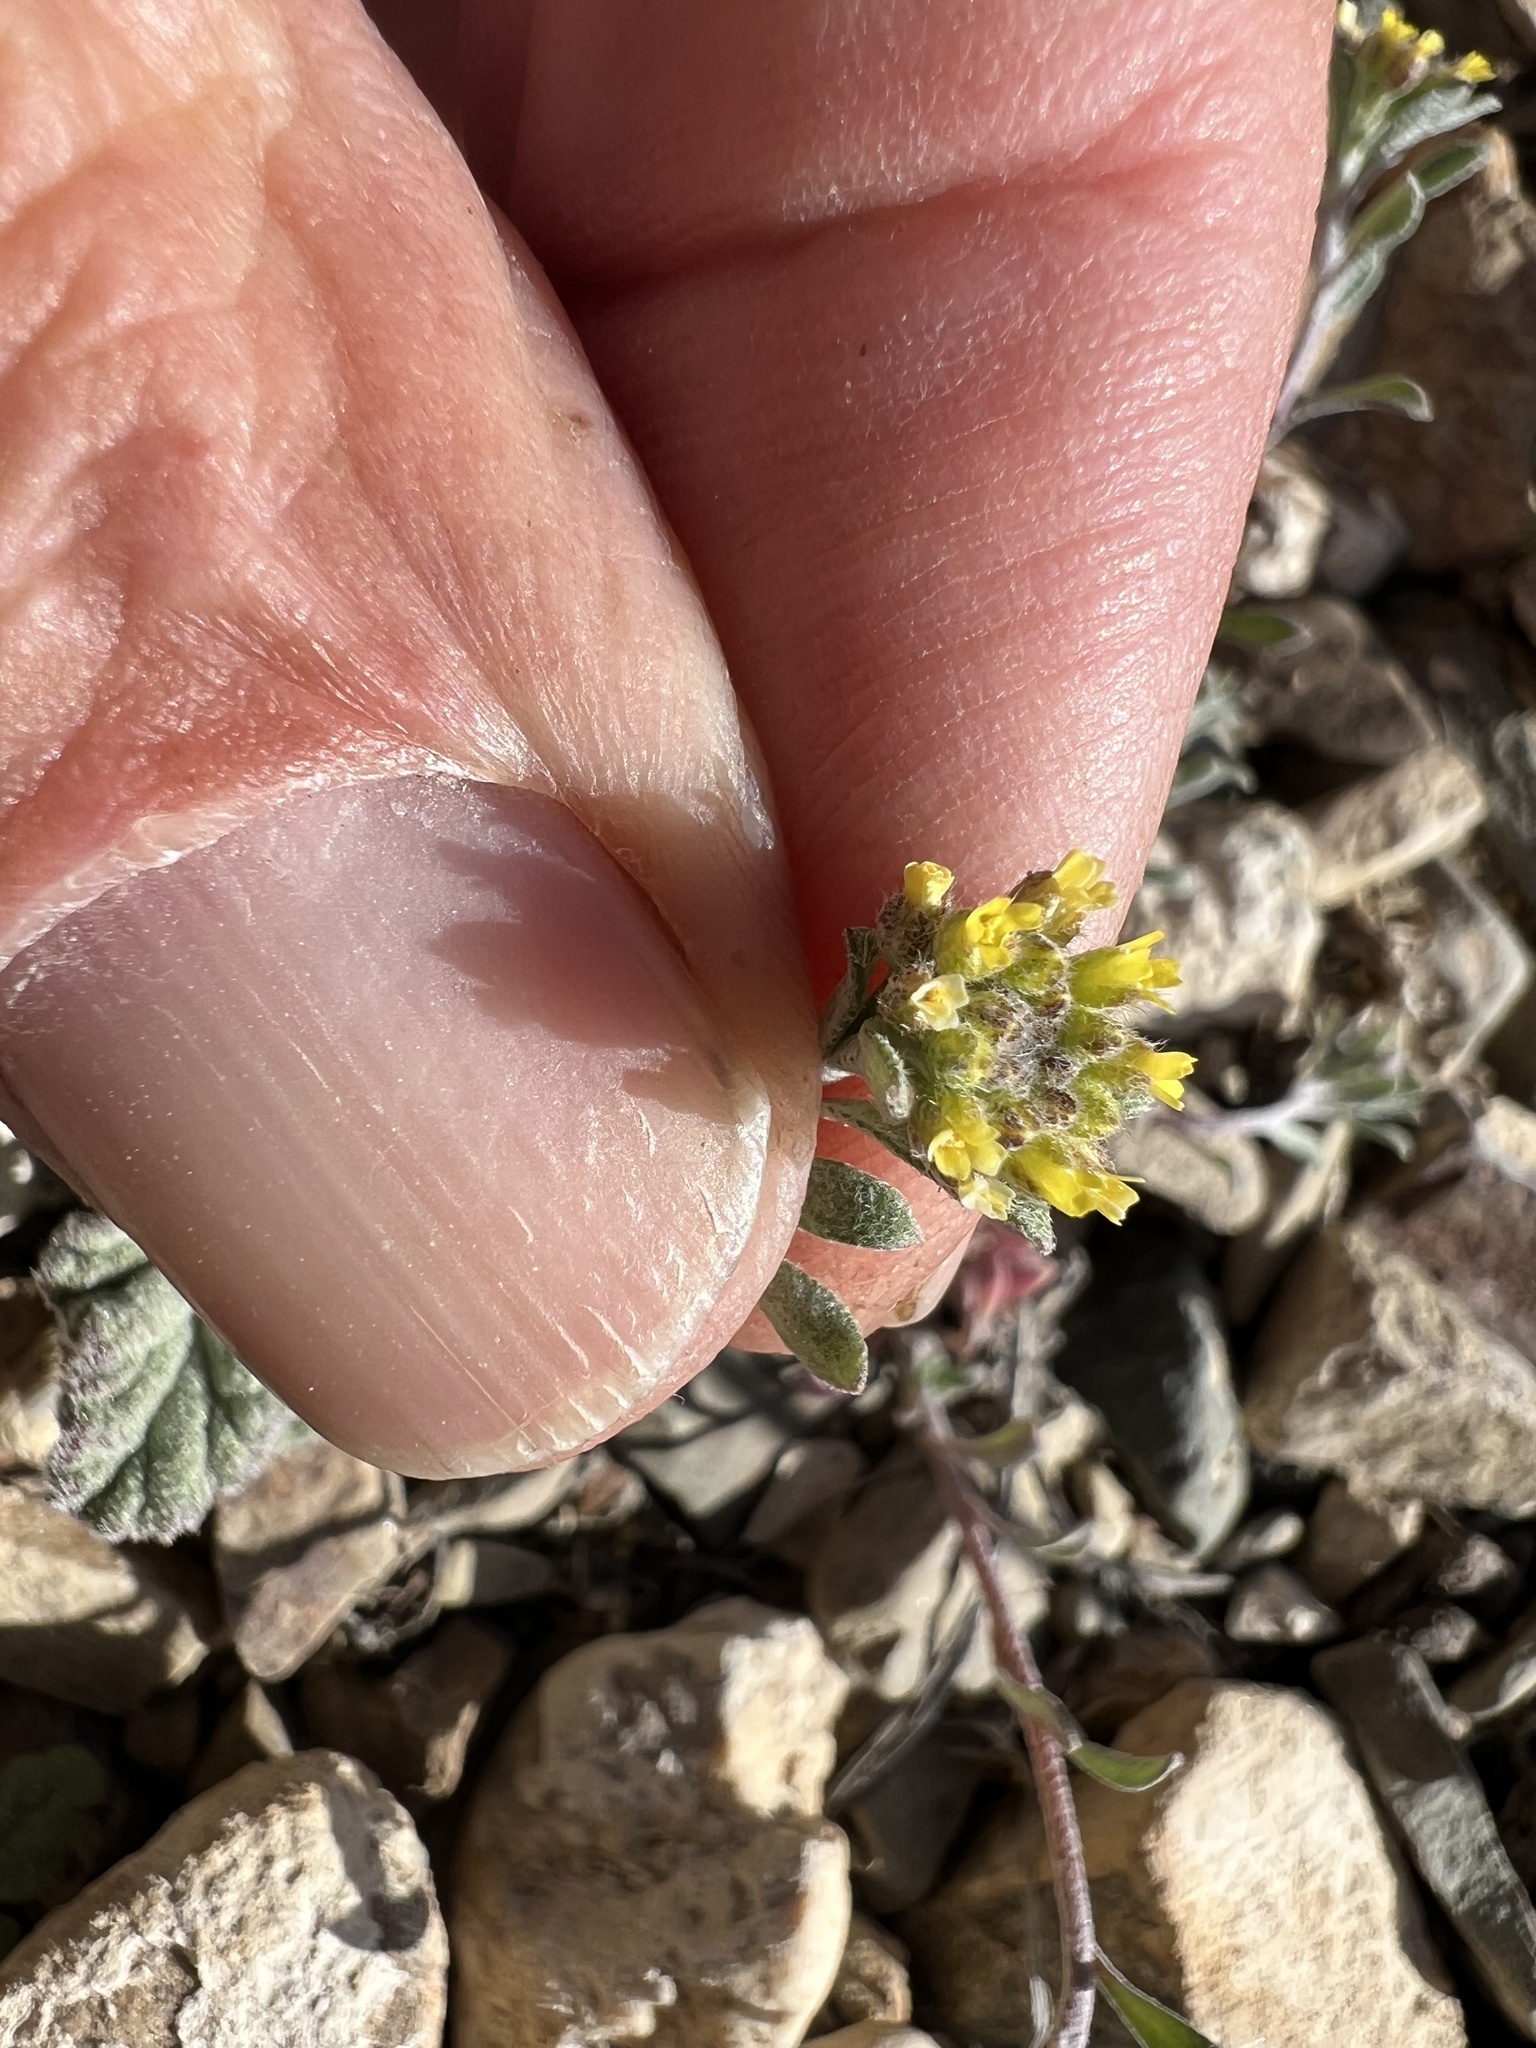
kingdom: Plantae
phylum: Tracheophyta
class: Magnoliopsida
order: Brassicales
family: Brassicaceae
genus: Alyssum
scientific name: Alyssum turkestanicum
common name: Desert alyssum
